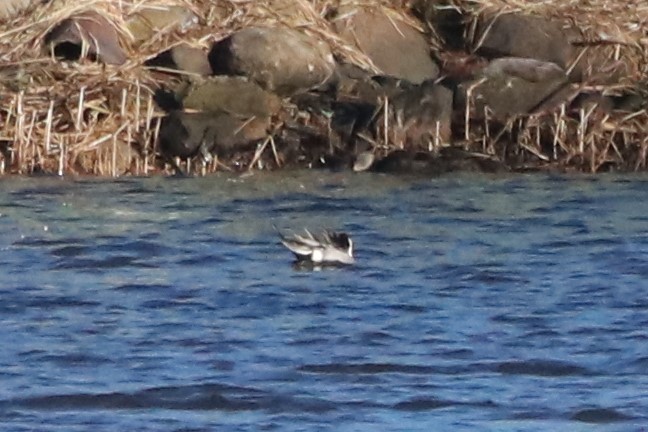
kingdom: Animalia
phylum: Chordata
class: Aves
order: Anseriformes
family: Anatidae
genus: Anas
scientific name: Anas acuta
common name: Northern pintail
